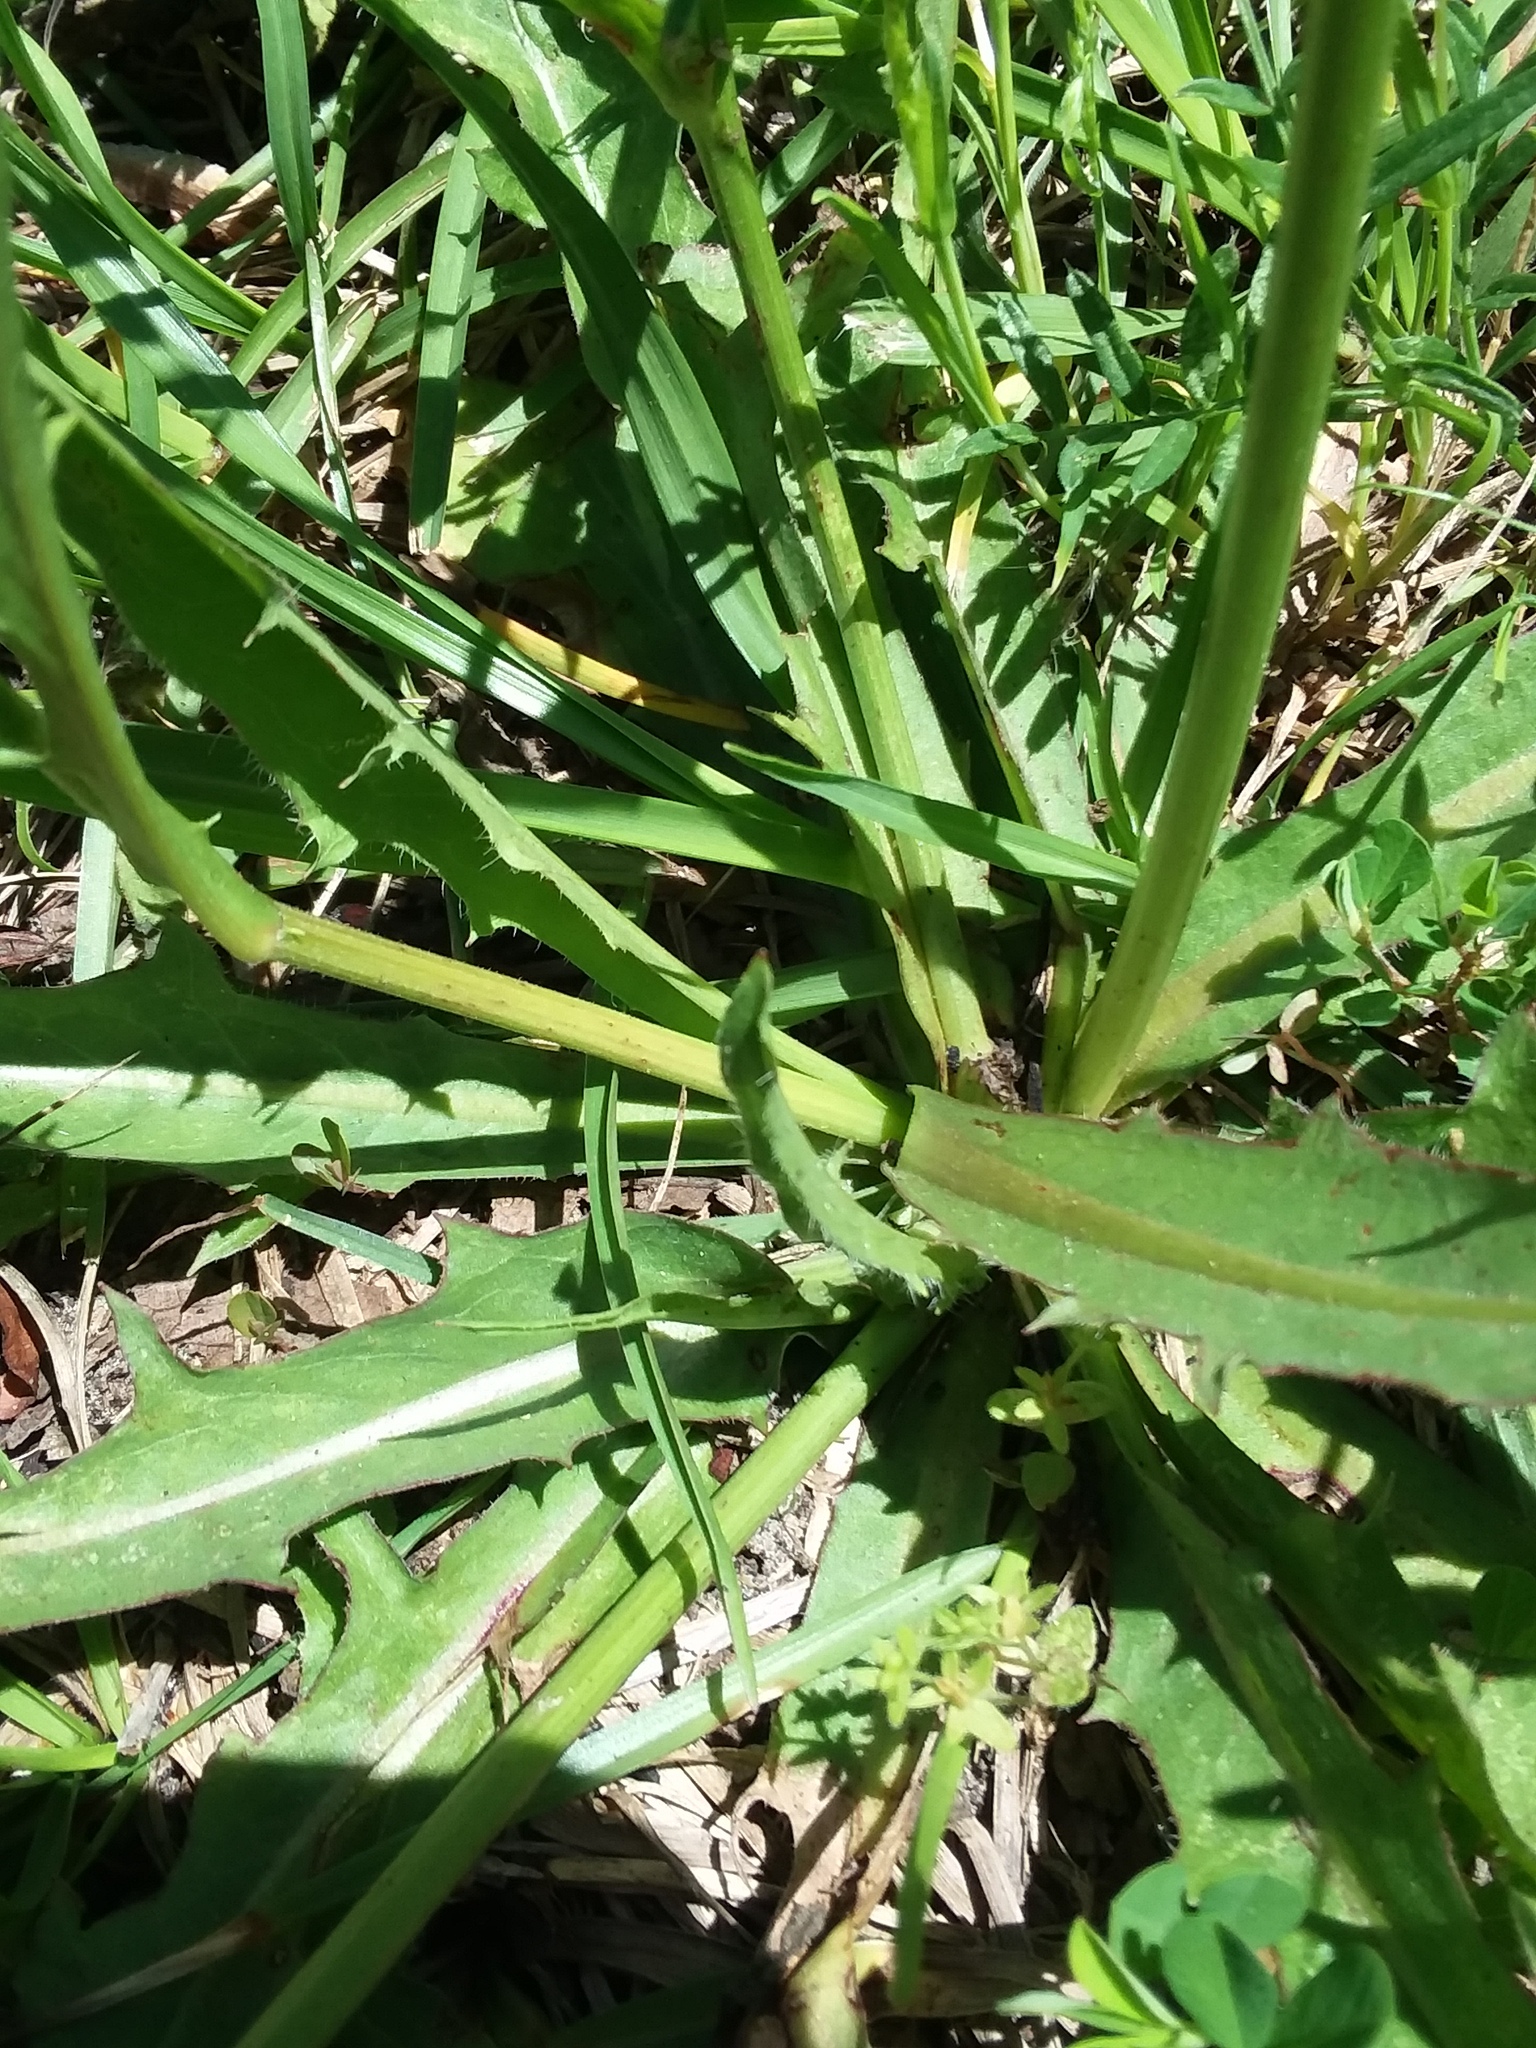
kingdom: Plantae
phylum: Tracheophyta
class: Magnoliopsida
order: Asterales
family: Asteraceae
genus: Hypochaeris
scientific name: Hypochaeris albiflora
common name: White flatweed
